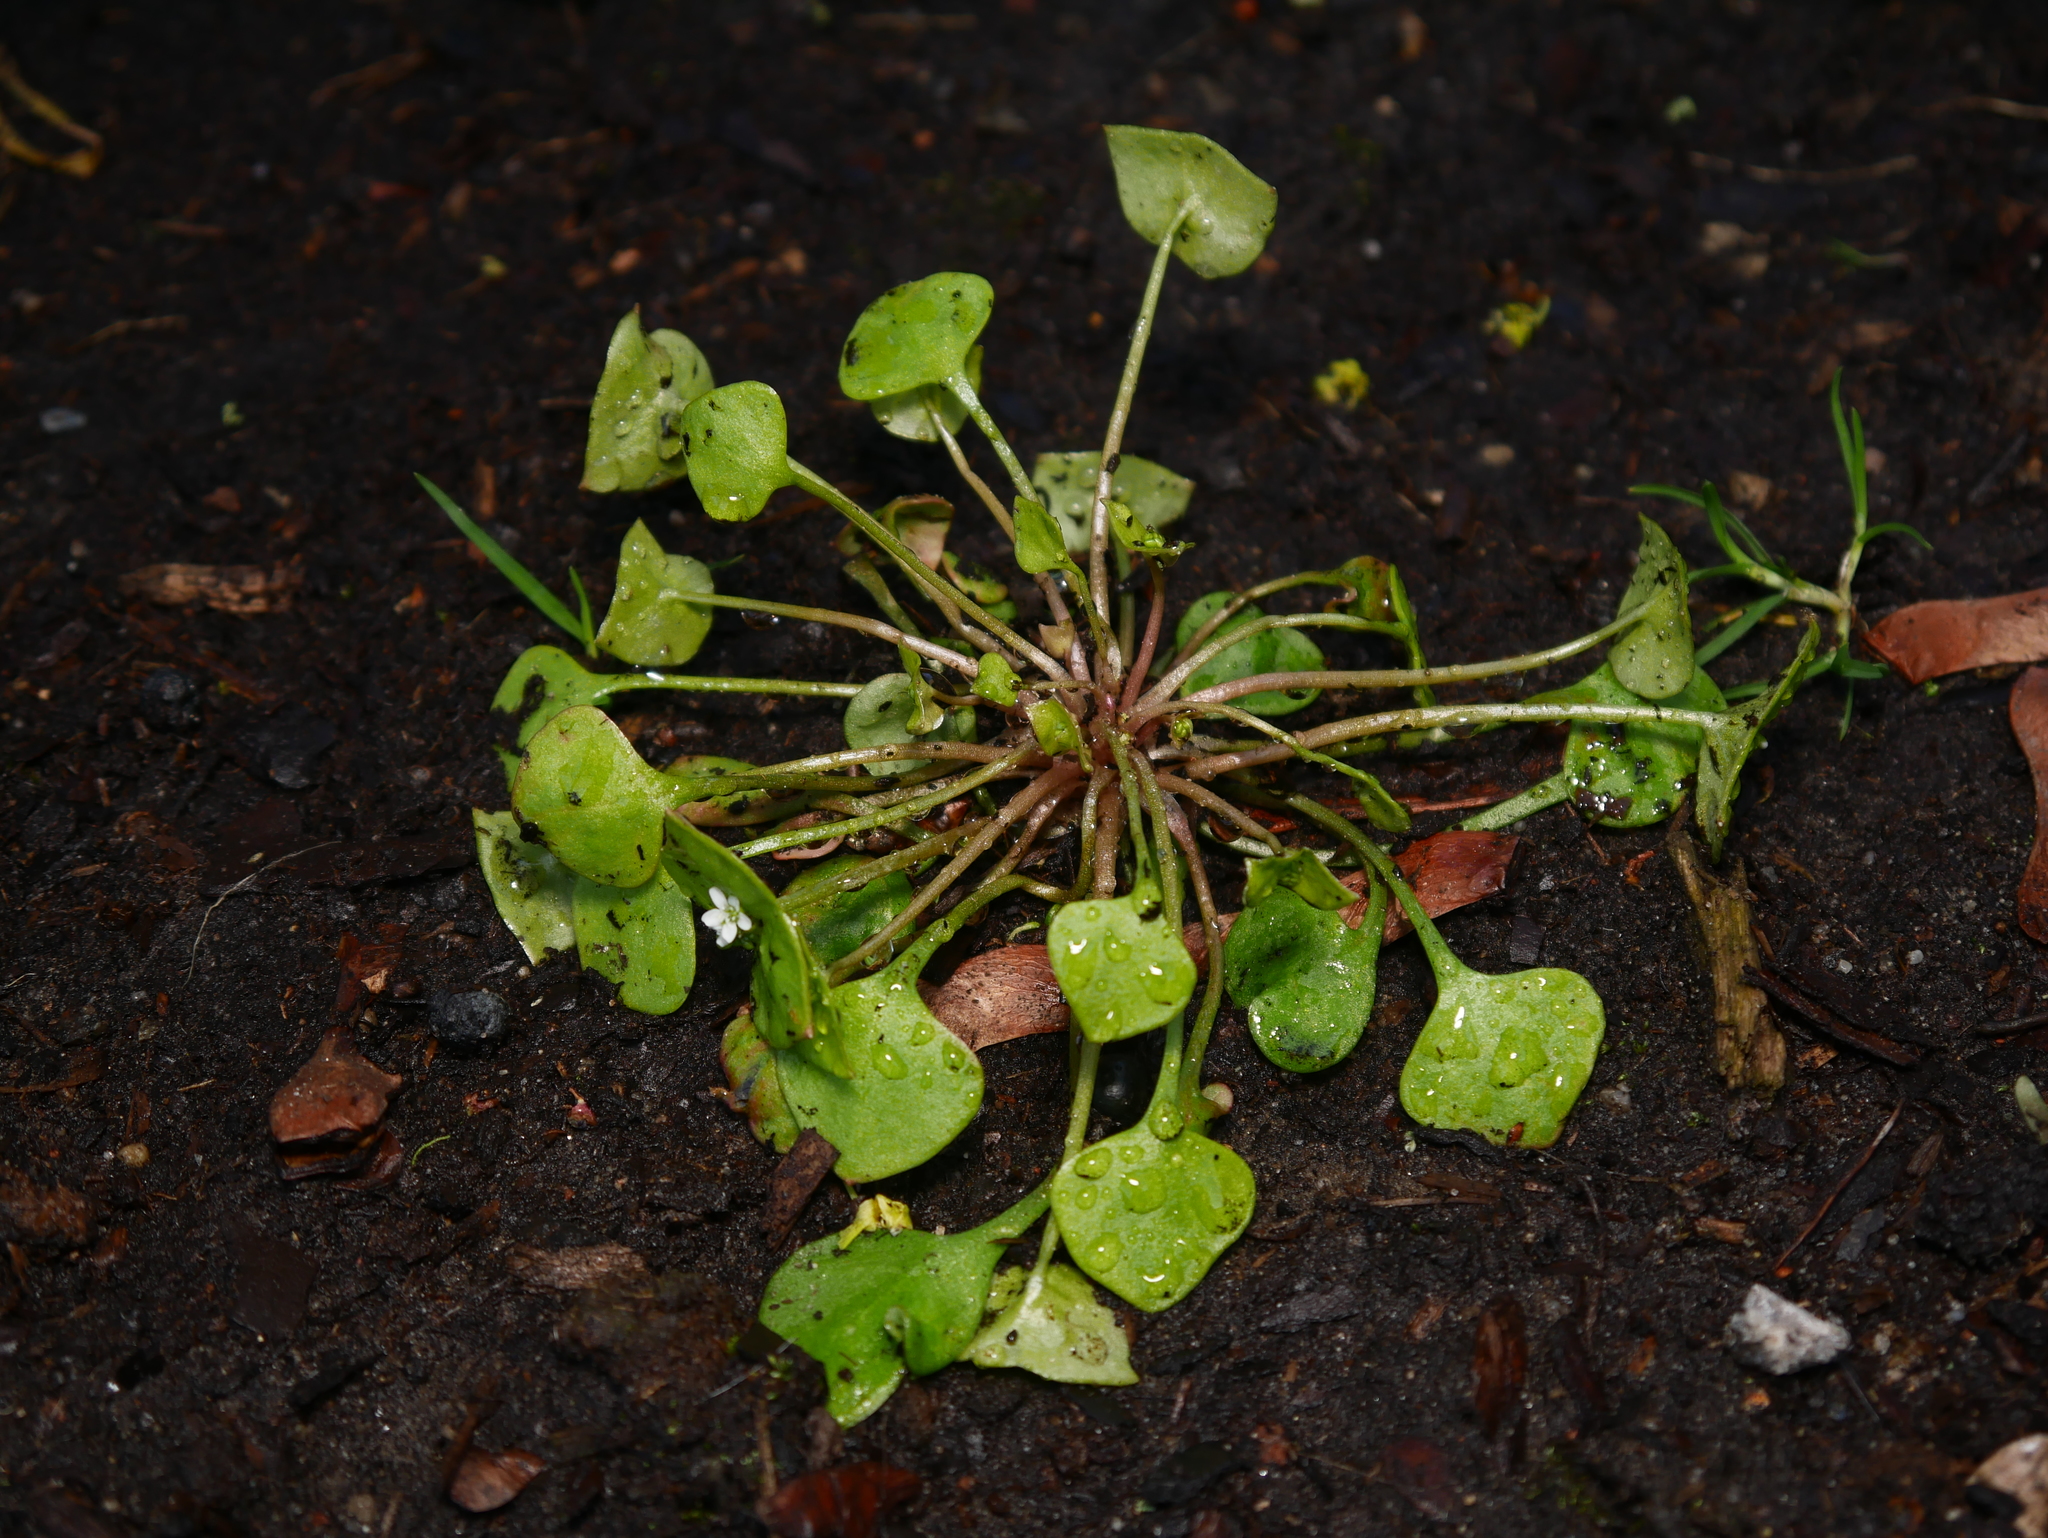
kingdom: Plantae
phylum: Tracheophyta
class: Magnoliopsida
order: Caryophyllales
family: Montiaceae
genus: Claytonia
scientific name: Claytonia perfoliata
